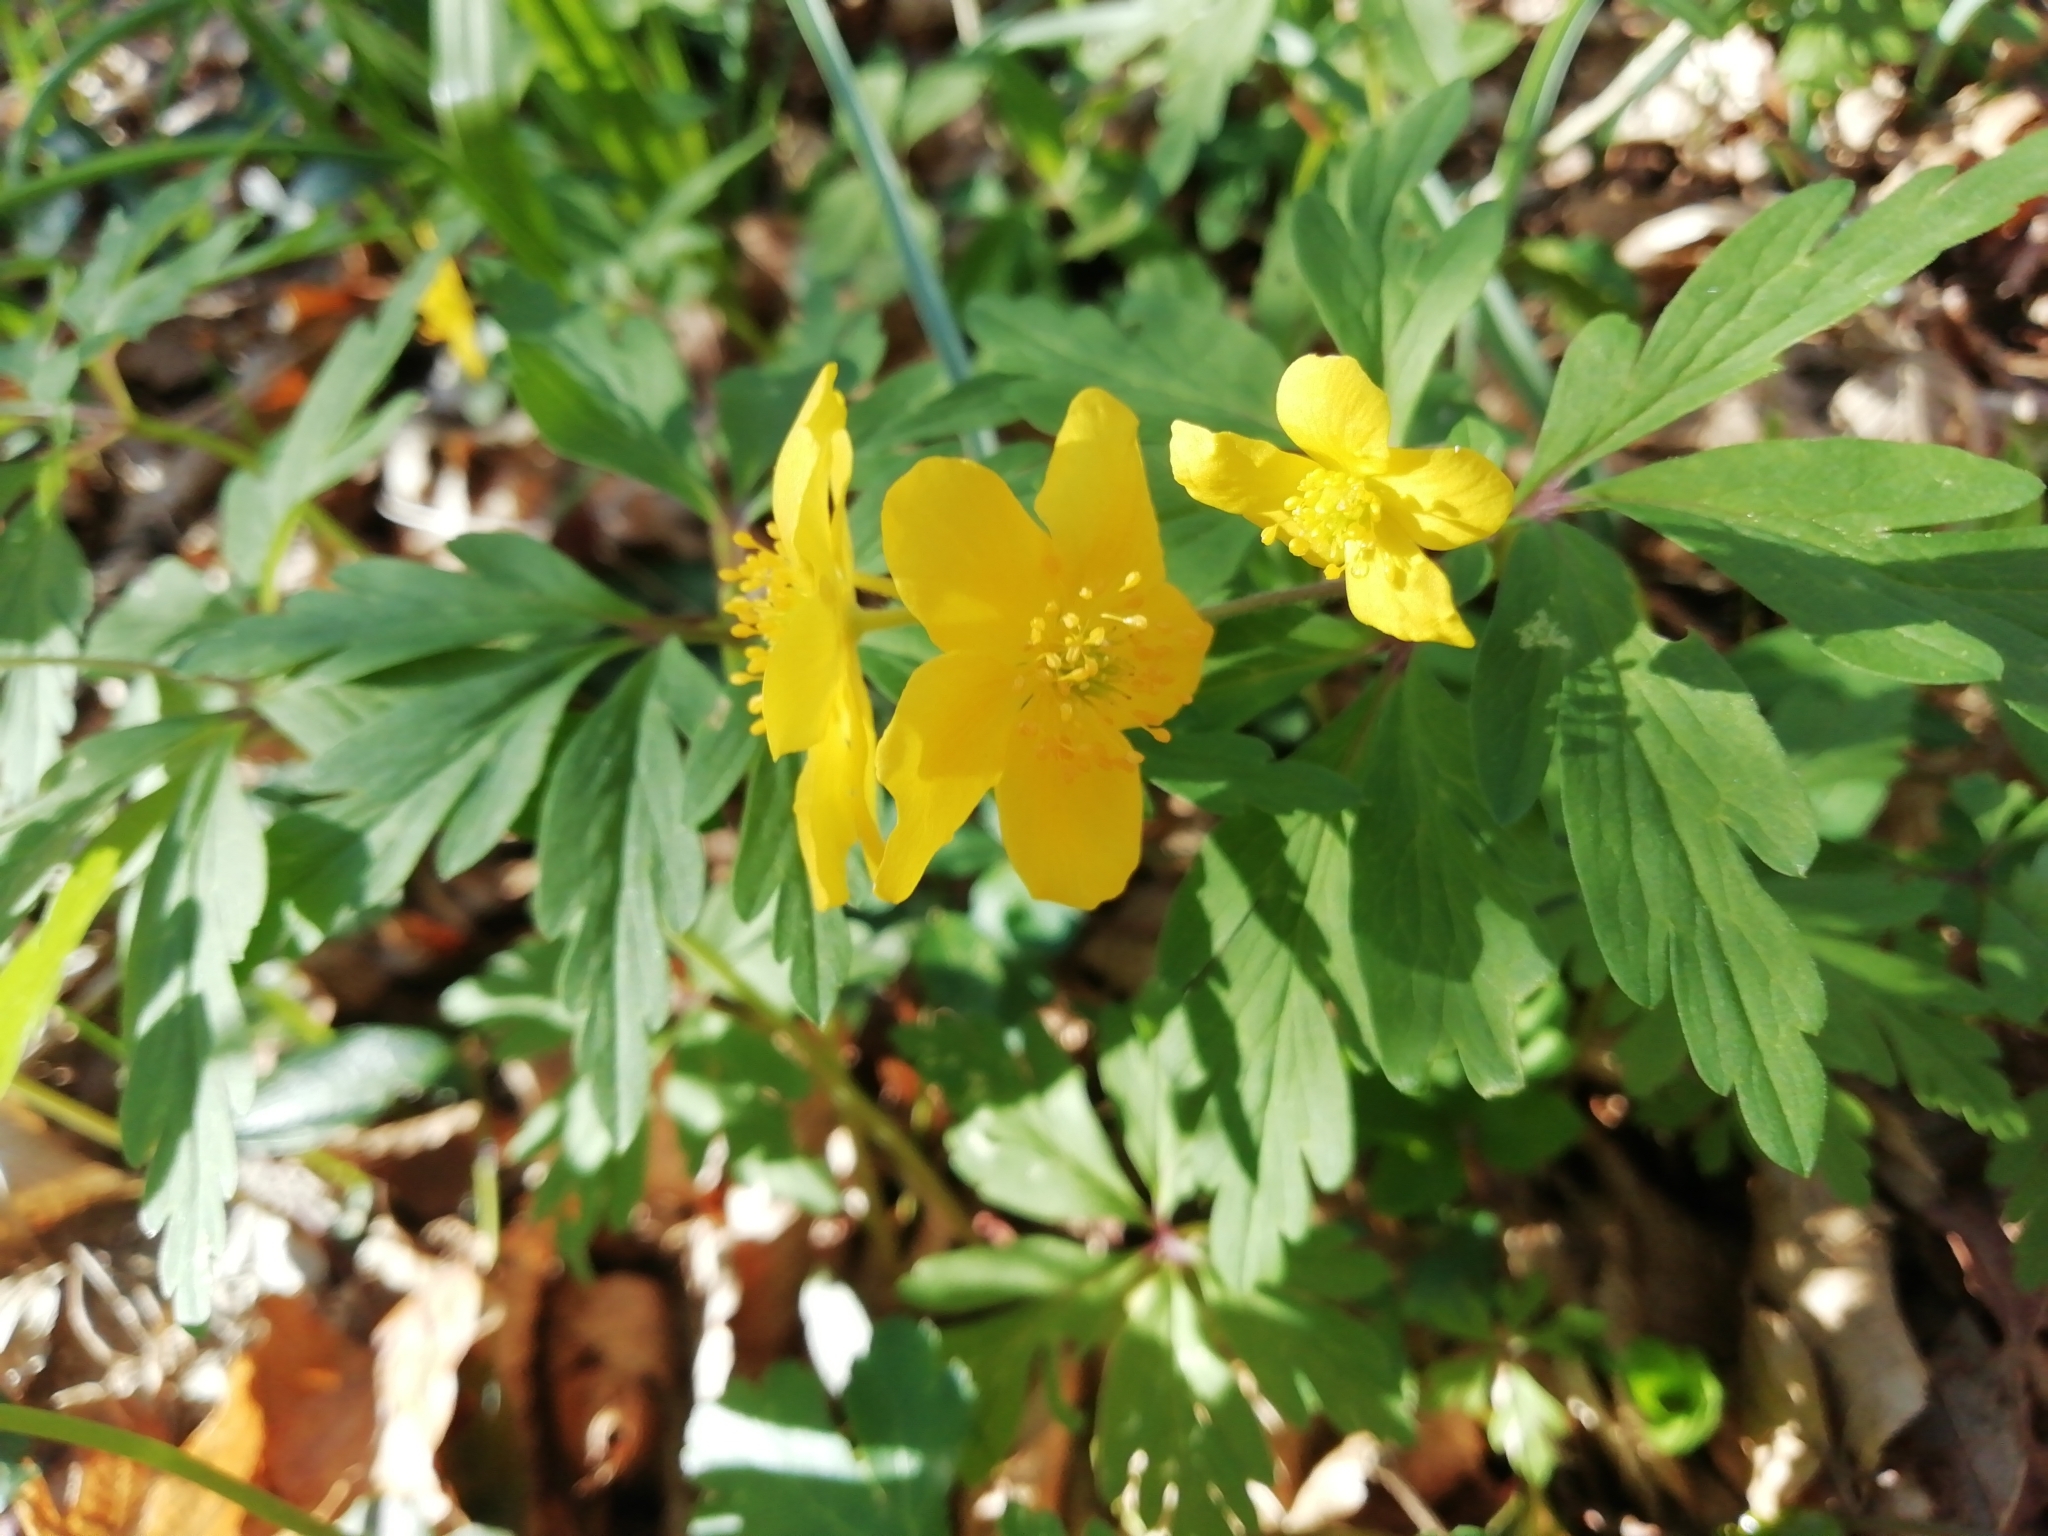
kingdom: Plantae
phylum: Tracheophyta
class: Magnoliopsida
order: Ranunculales
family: Ranunculaceae
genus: Anemone
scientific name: Anemone ranunculoides
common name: Yellow anemone
